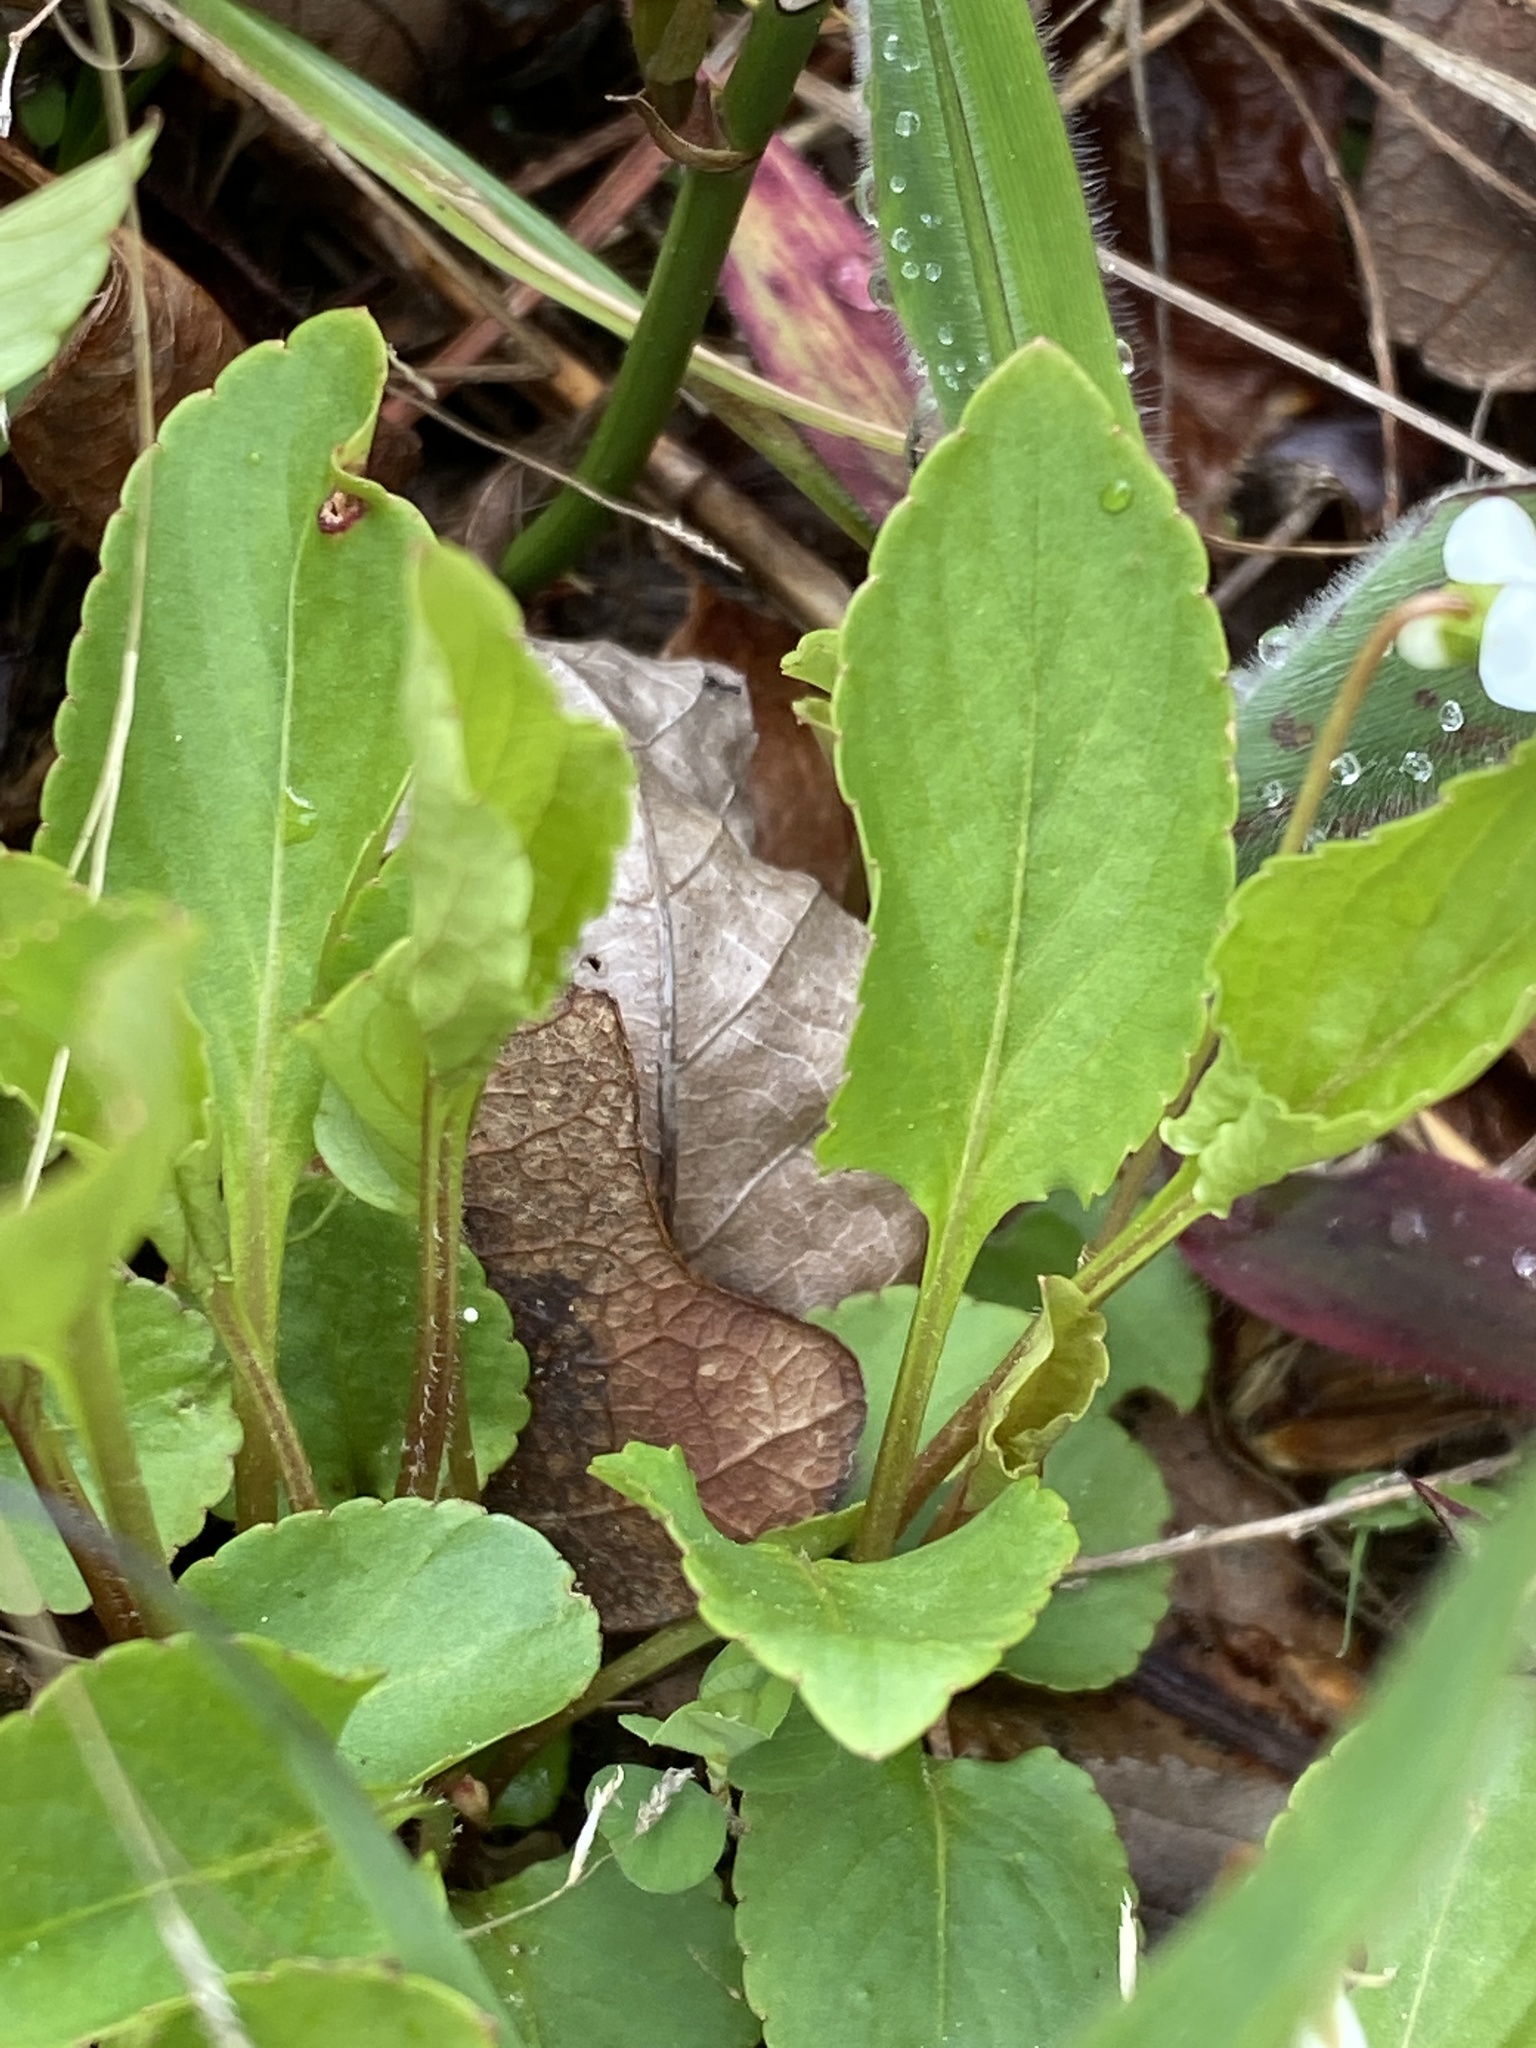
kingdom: Plantae
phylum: Tracheophyta
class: Magnoliopsida
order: Malpighiales
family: Violaceae
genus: Viola
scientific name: Viola primulifolia
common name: Primrose-leaf violet
